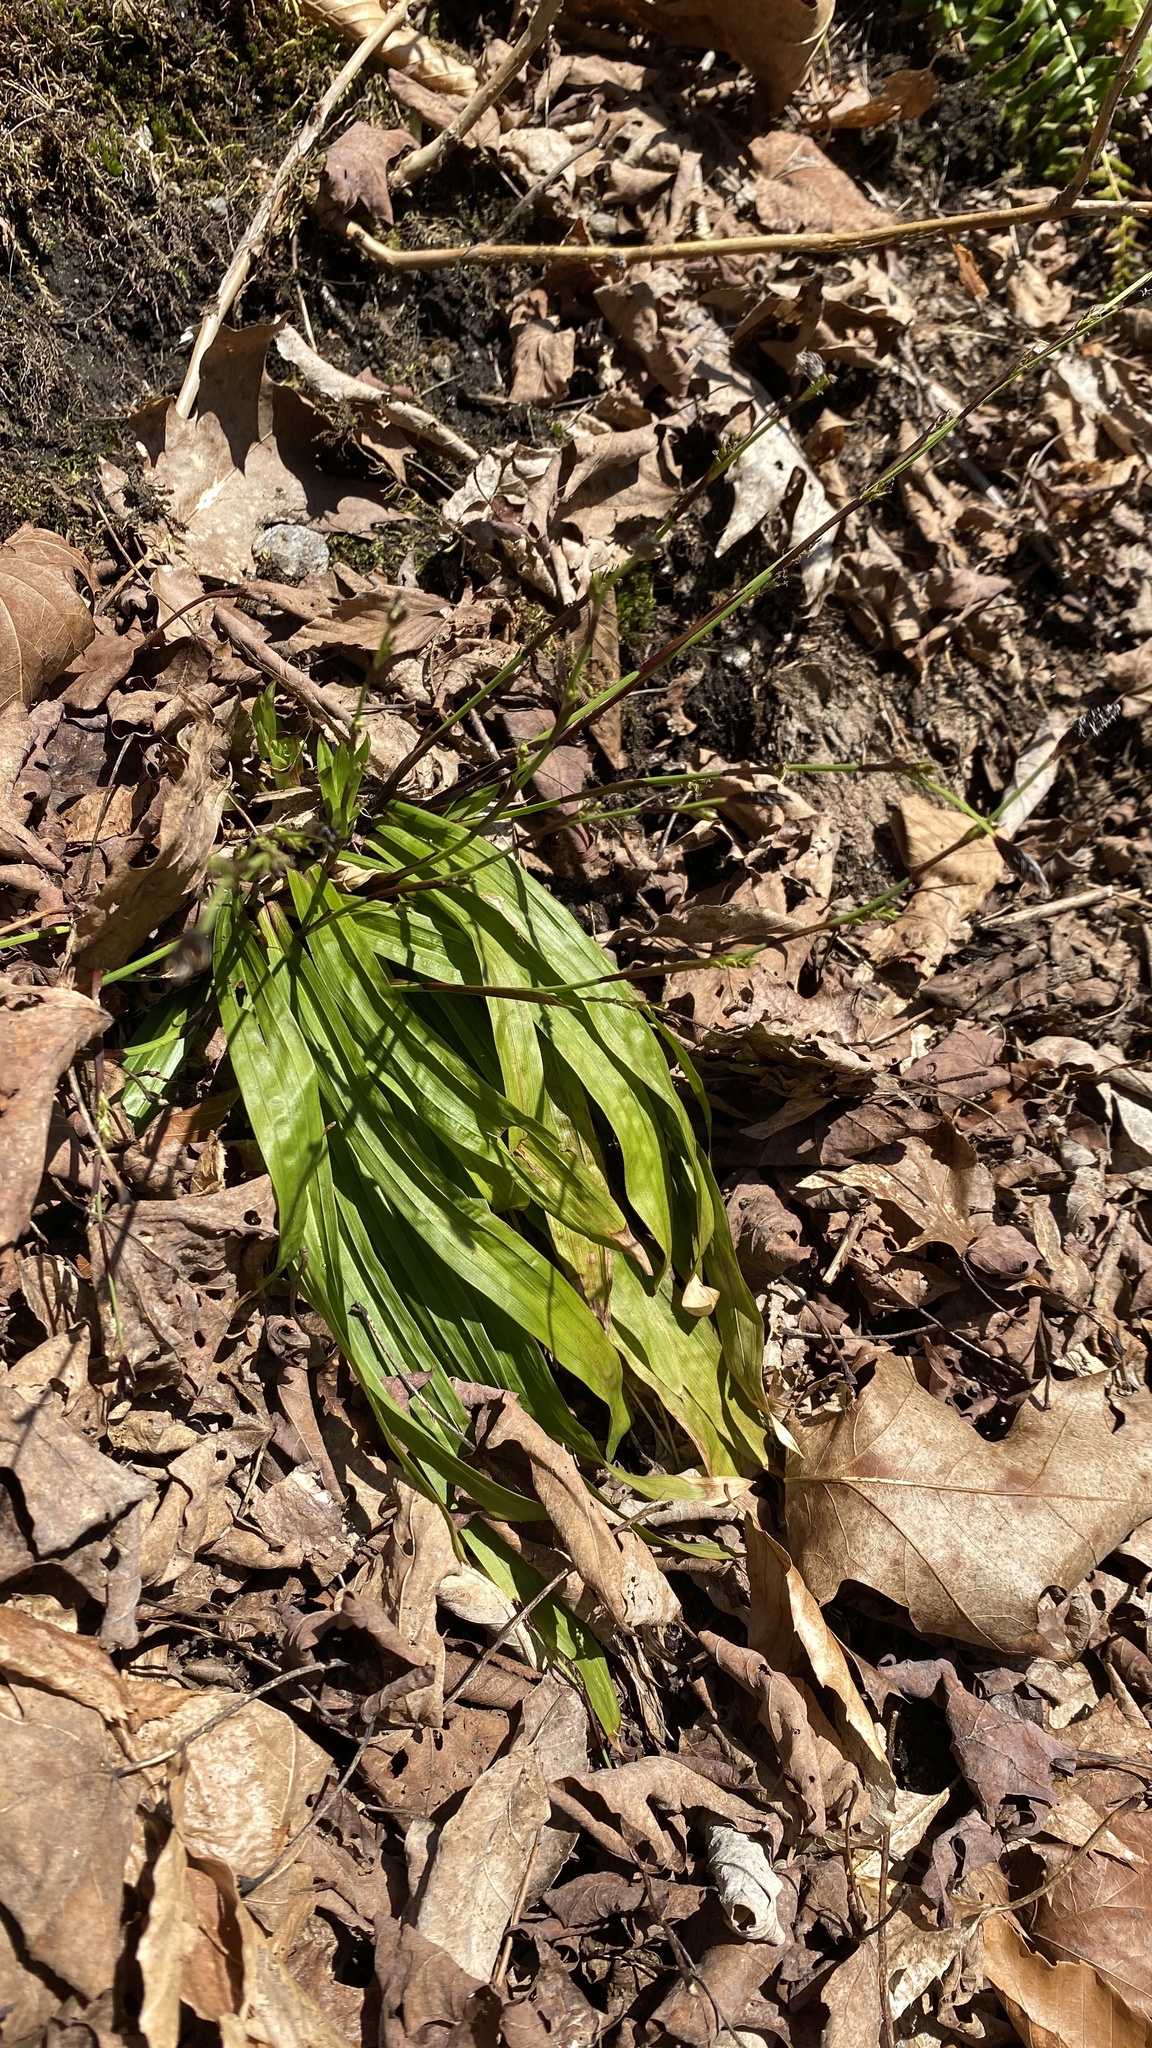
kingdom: Plantae
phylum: Tracheophyta
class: Liliopsida
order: Poales
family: Cyperaceae
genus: Carex
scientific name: Carex plantaginea
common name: Plantain-leaved sedge
